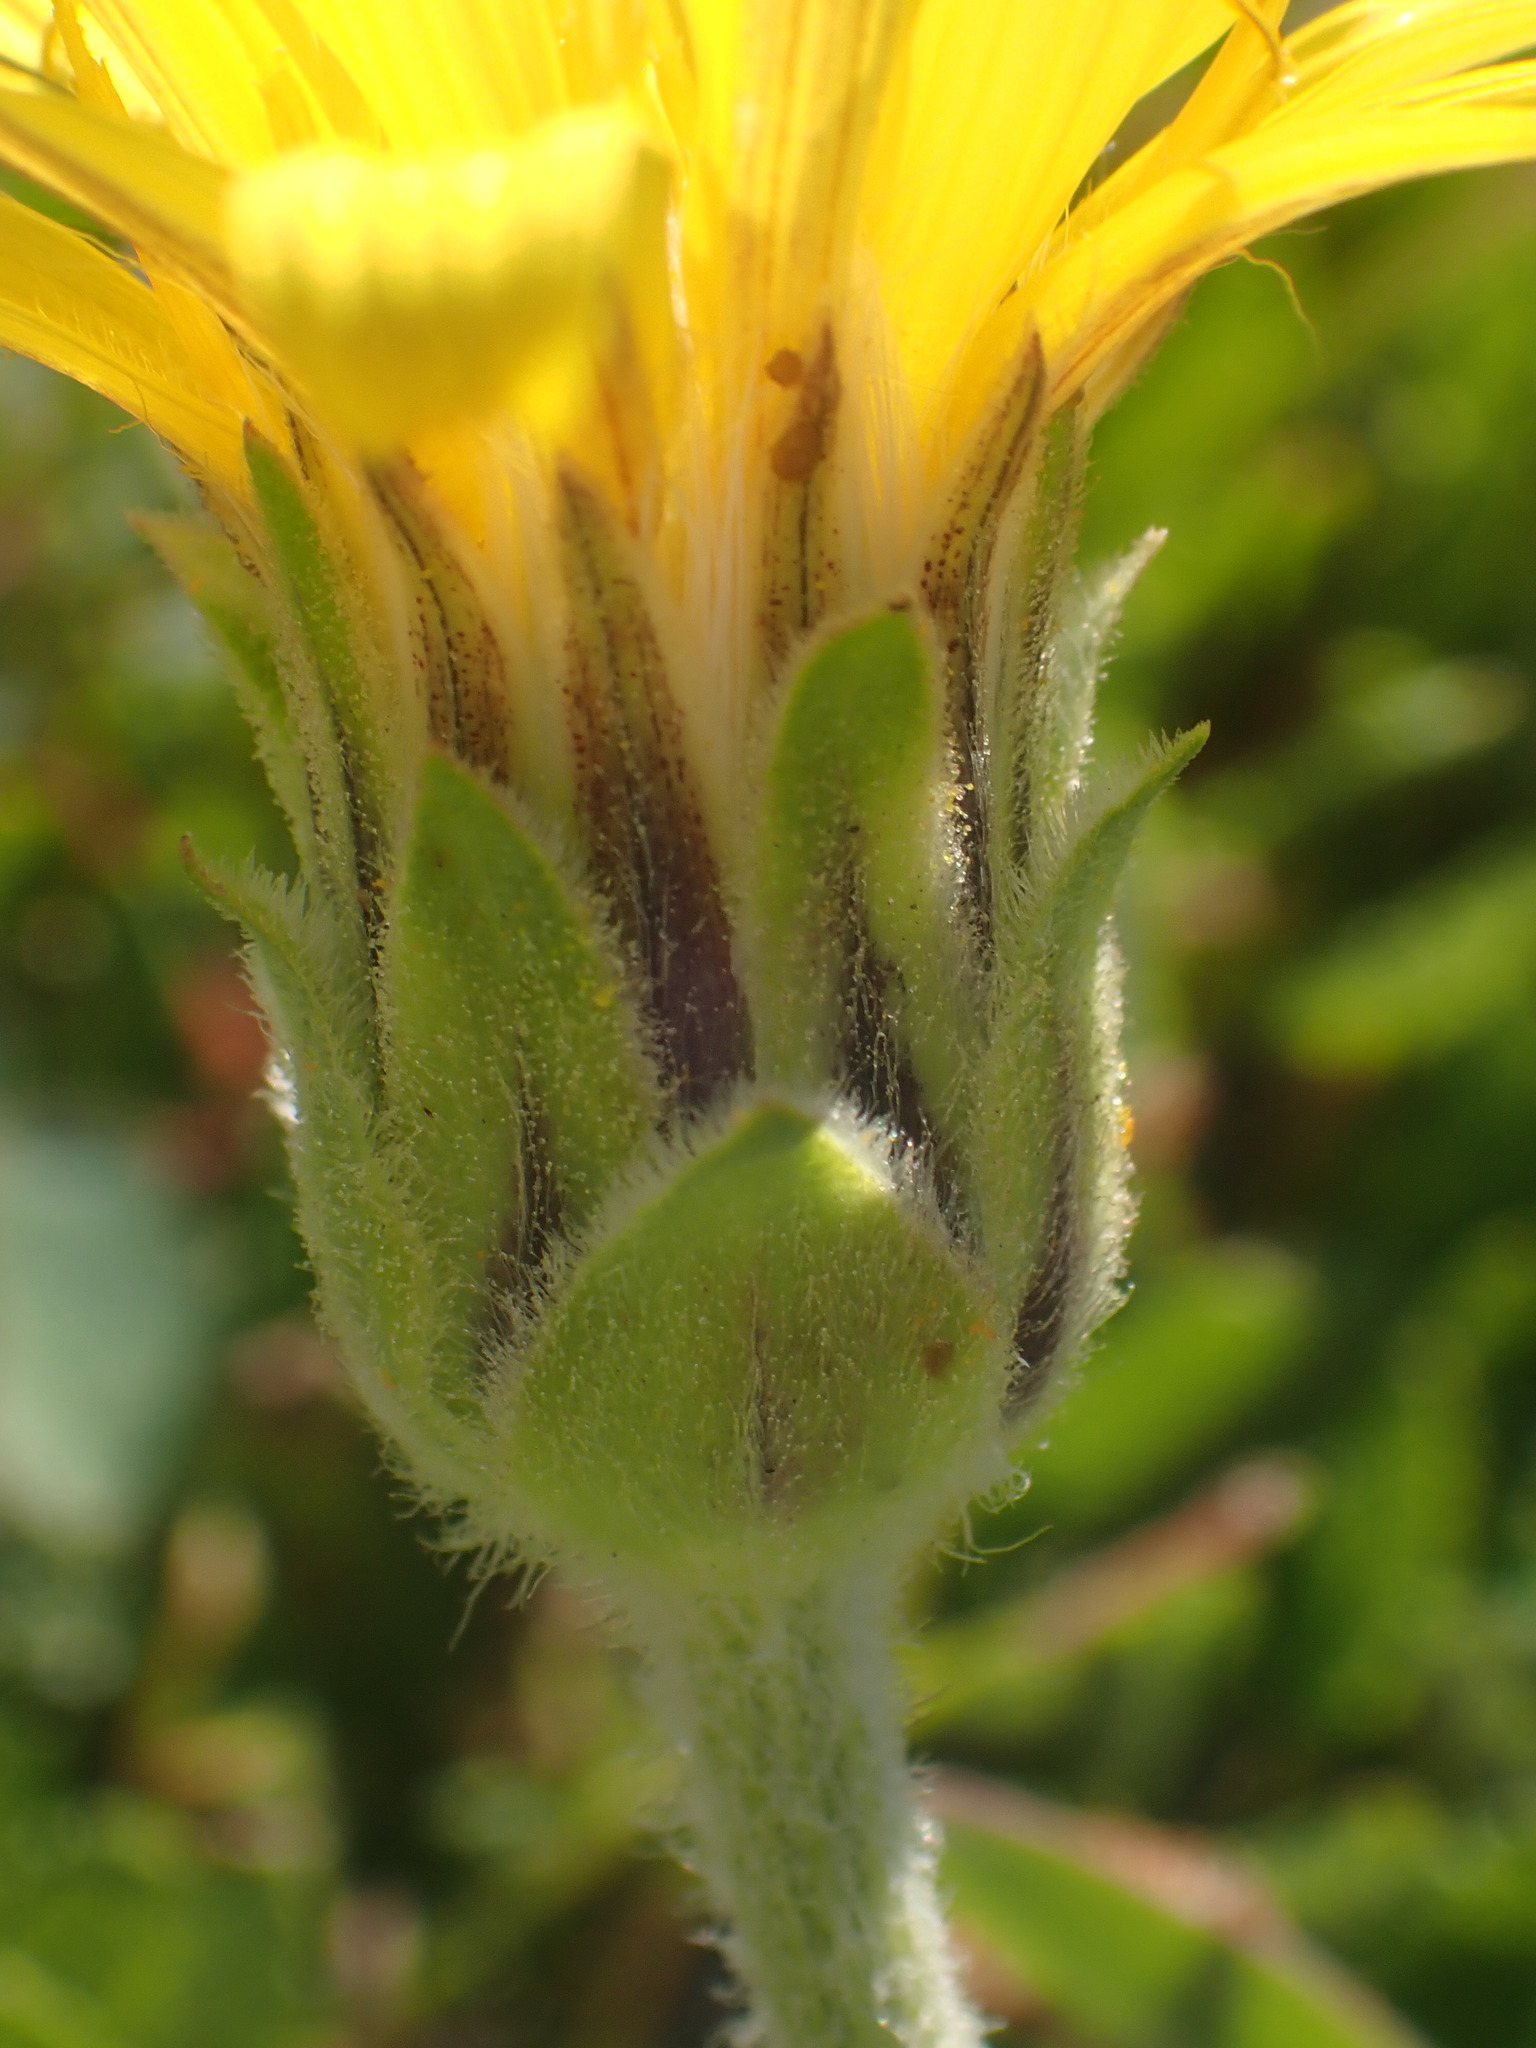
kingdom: Plantae
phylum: Tracheophyta
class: Magnoliopsida
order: Asterales
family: Asteraceae
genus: Agoseris
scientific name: Agoseris glauca
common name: Prairie agoseris
